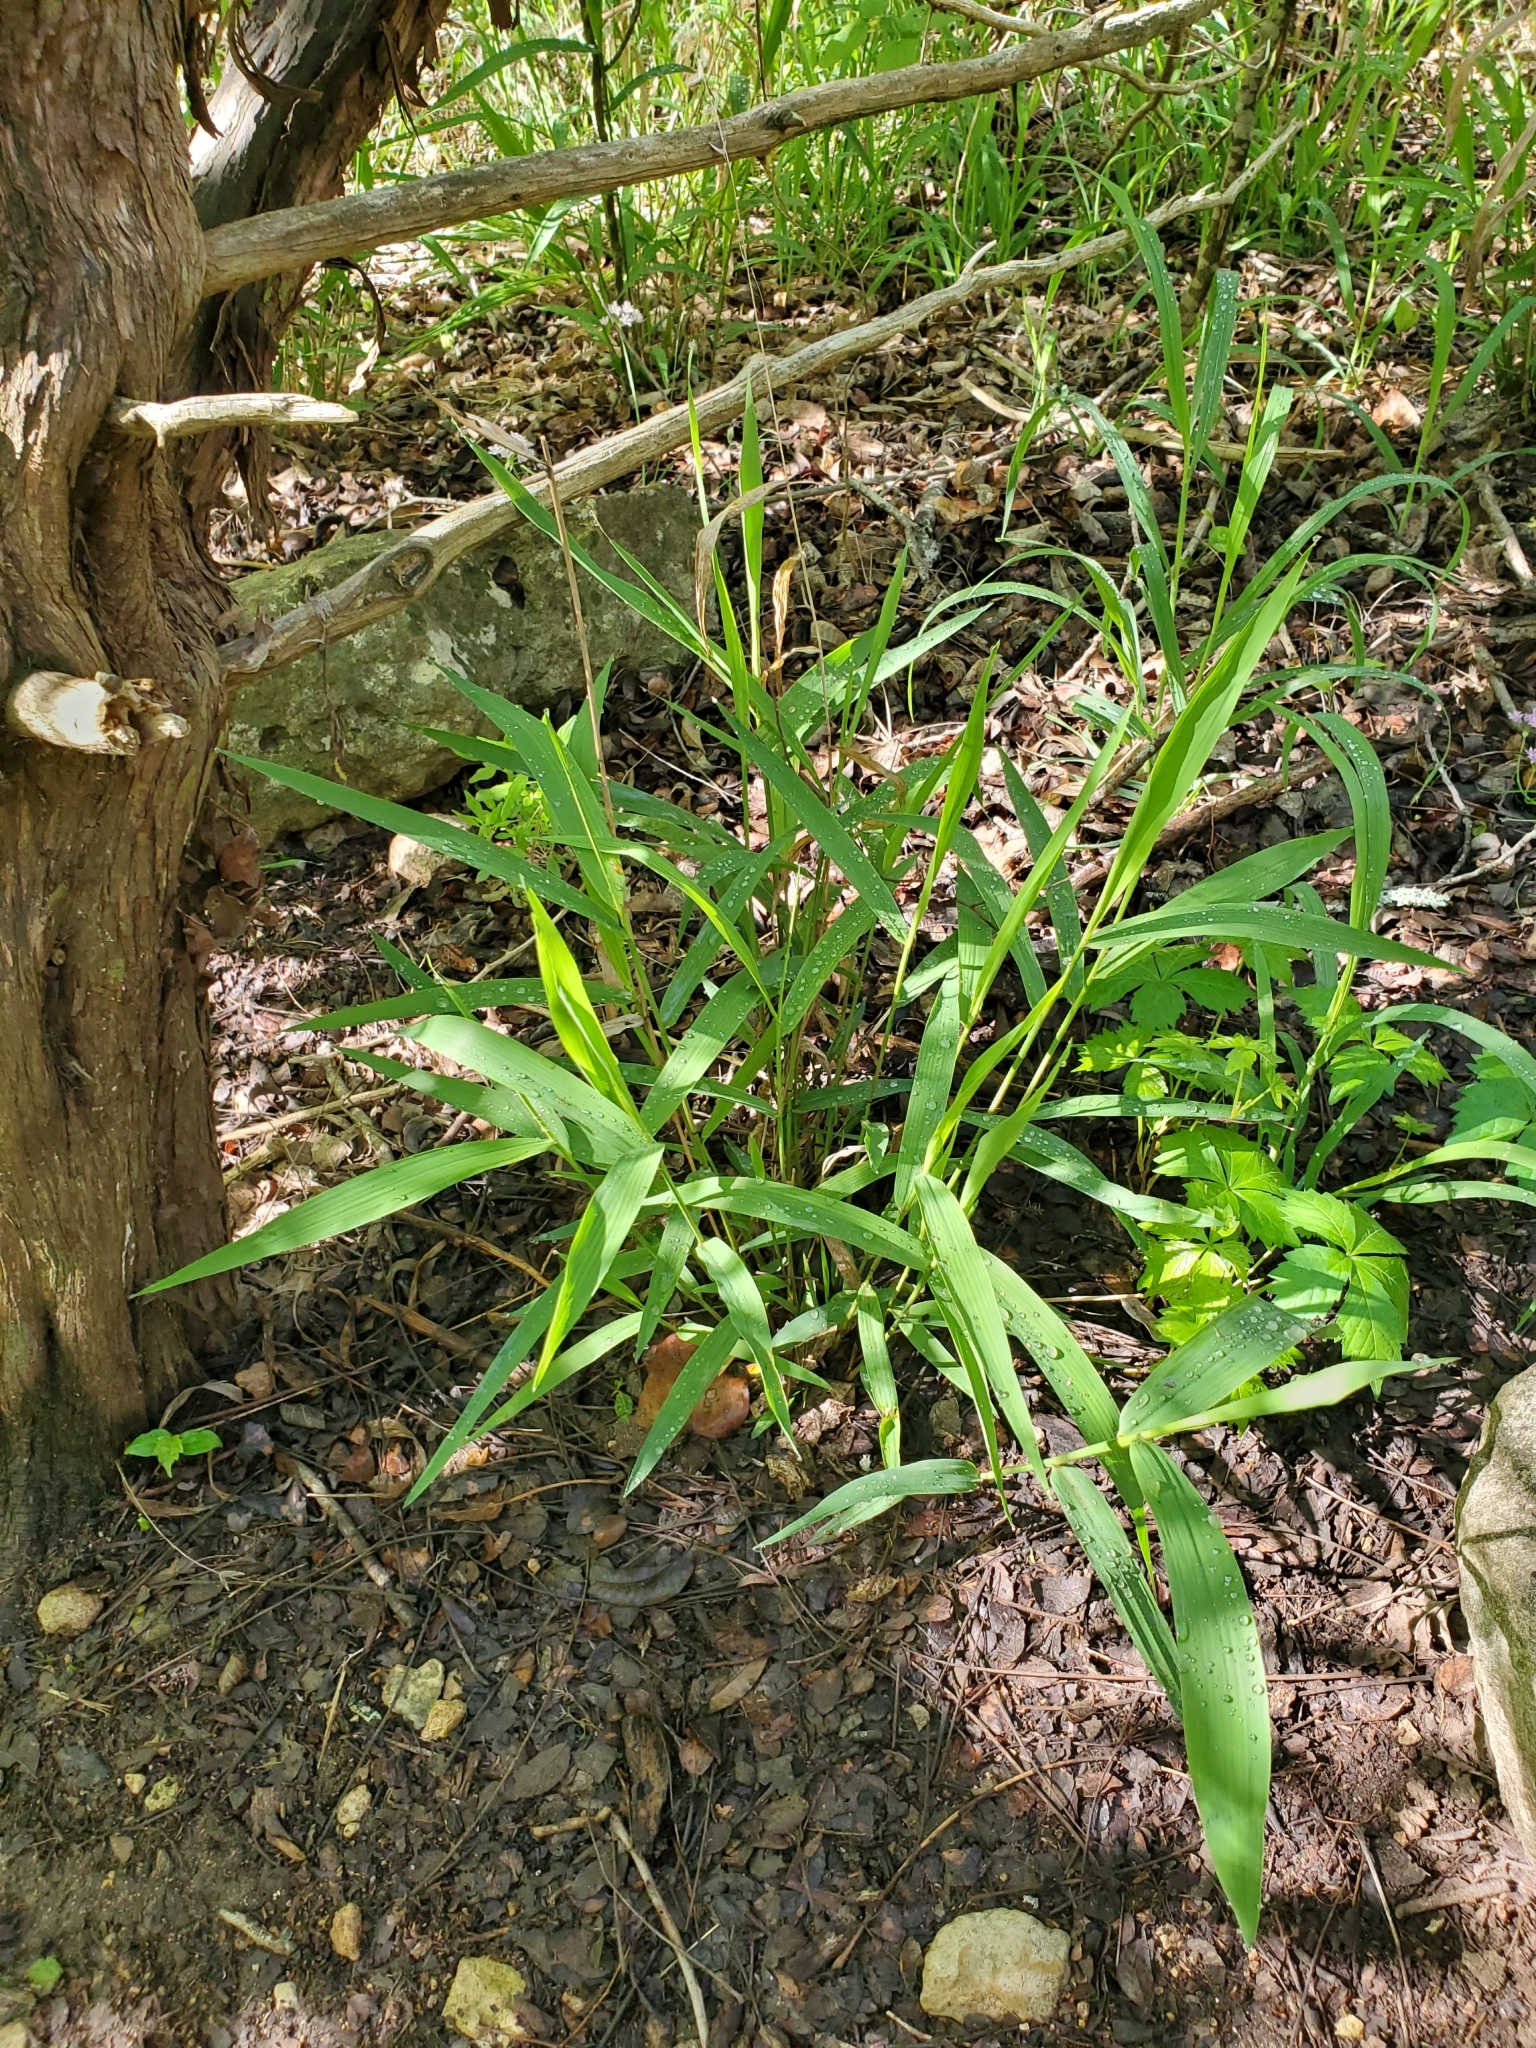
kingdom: Plantae
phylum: Tracheophyta
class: Liliopsida
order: Poales
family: Poaceae
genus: Chasmanthium
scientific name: Chasmanthium latifolium
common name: Broad-leaved chasmanthium
